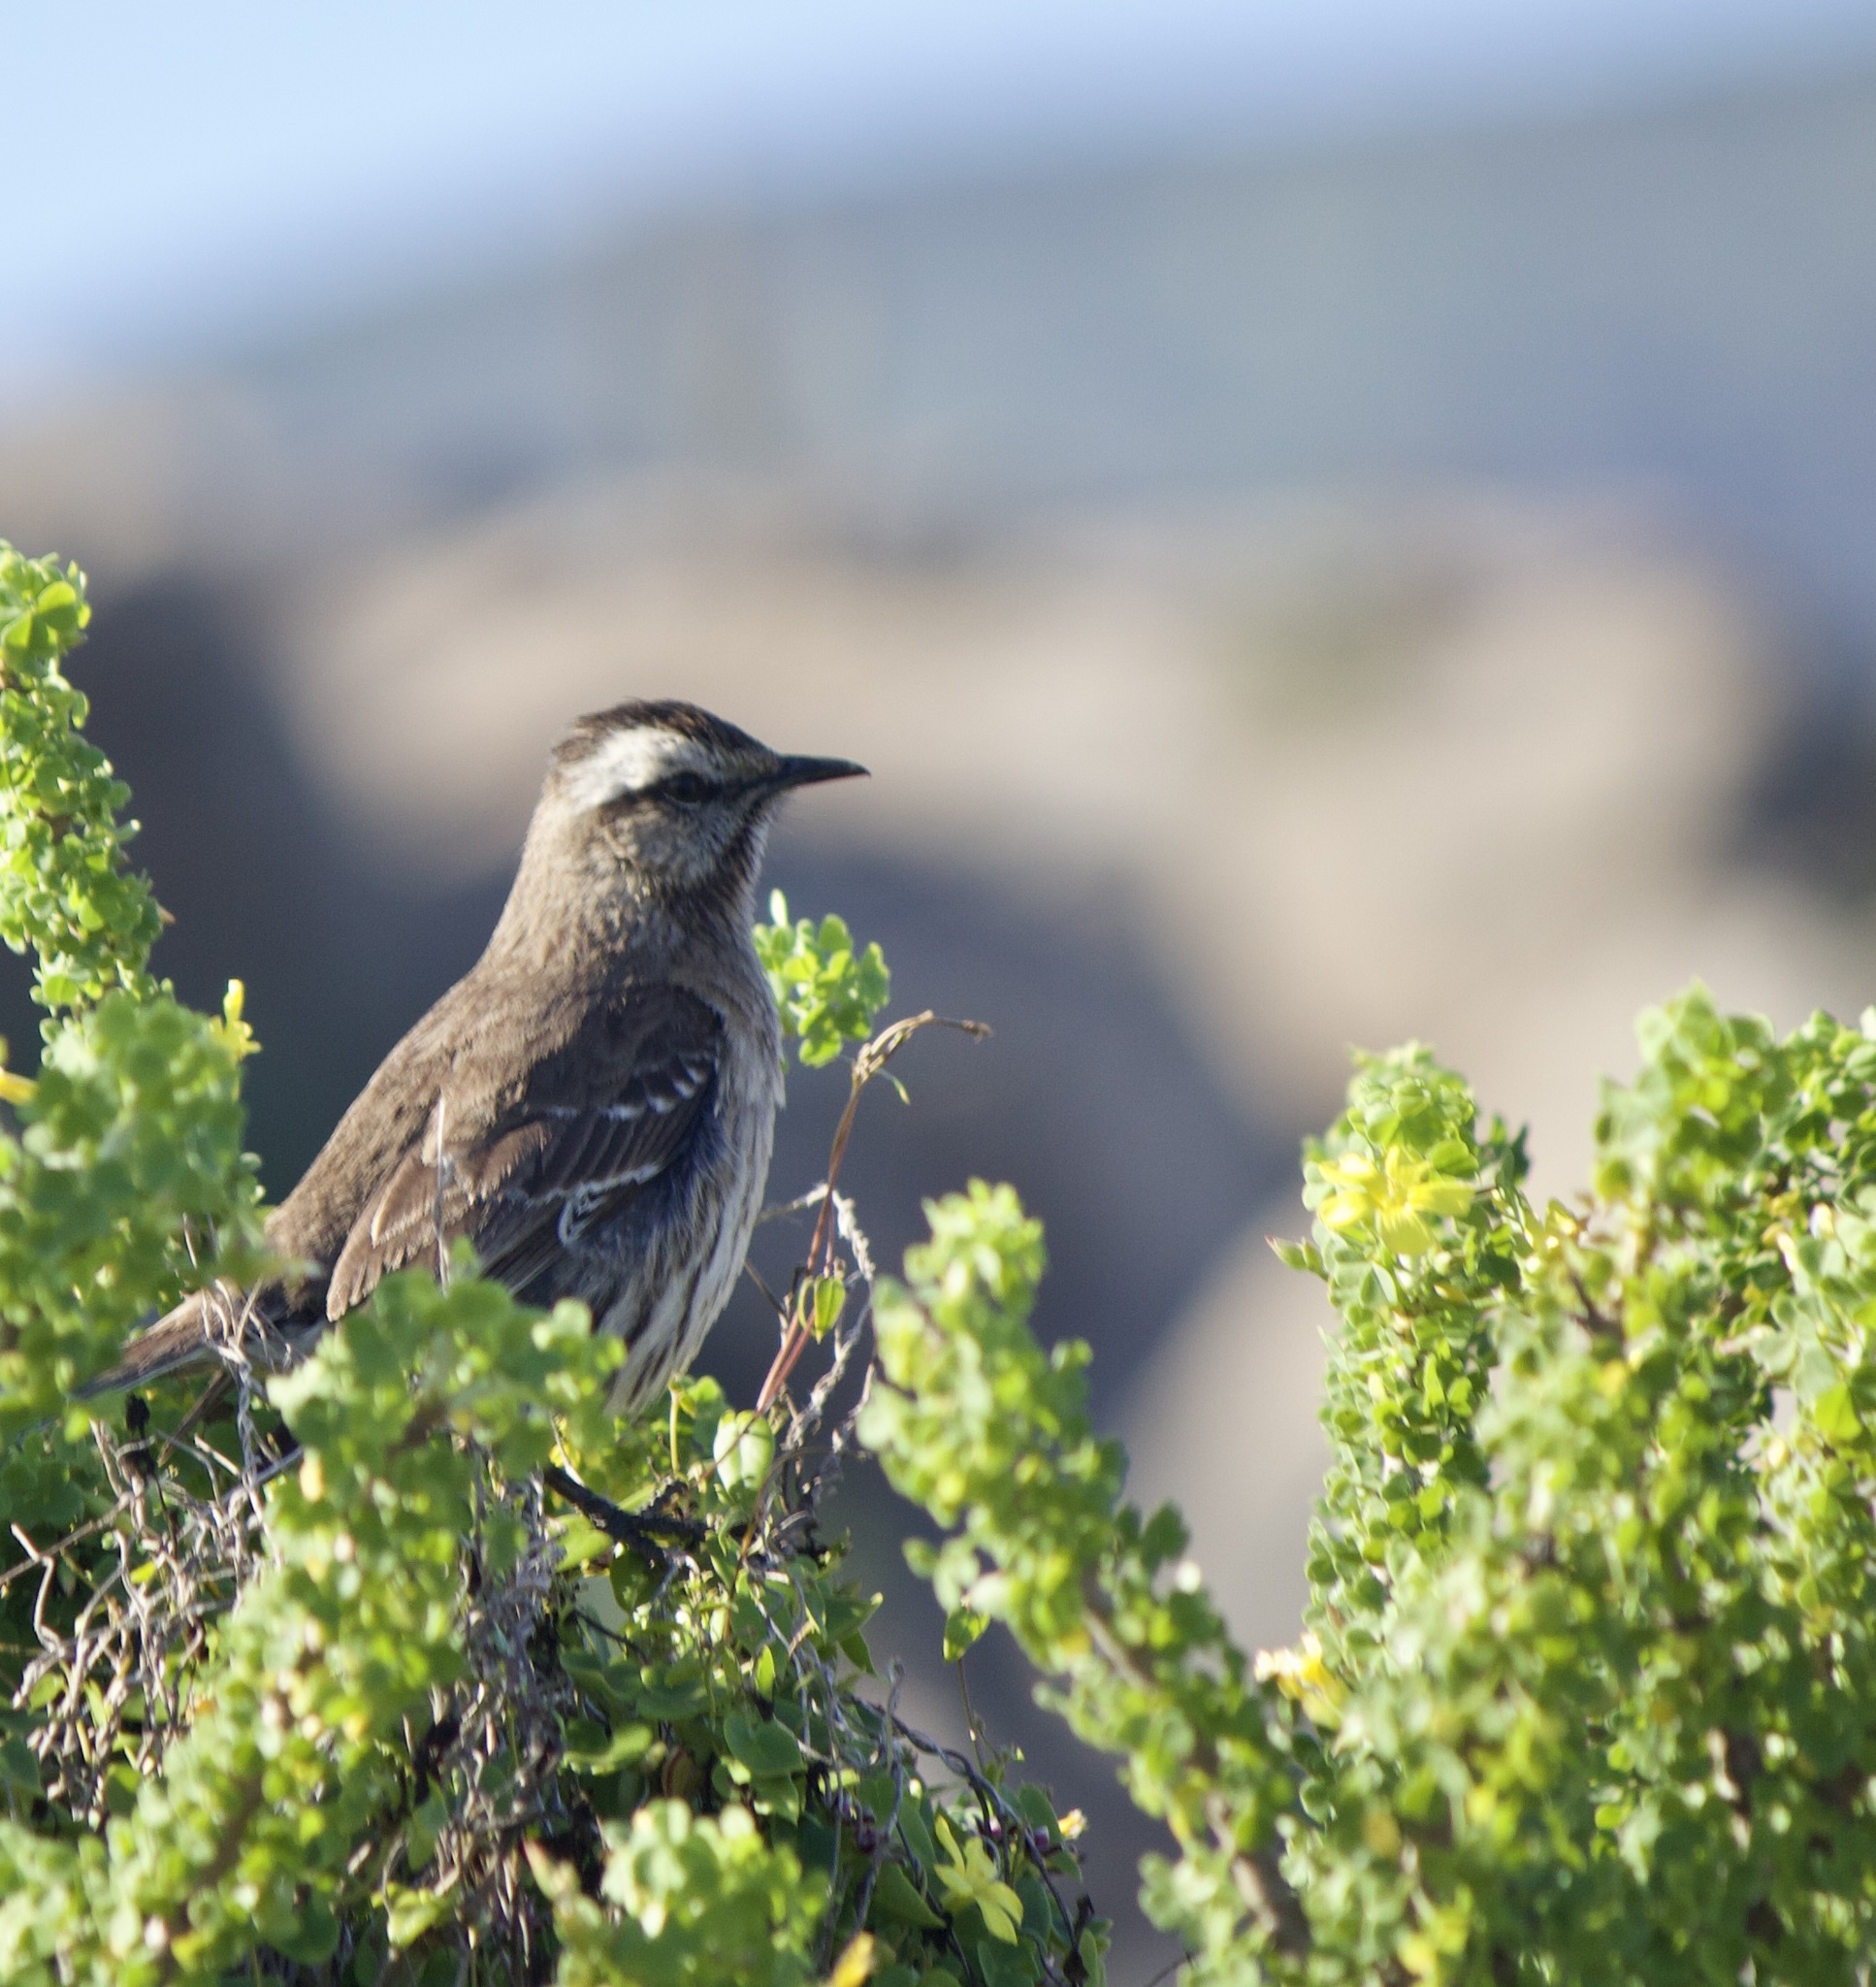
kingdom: Animalia
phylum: Chordata
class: Aves
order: Passeriformes
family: Mimidae
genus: Mimus
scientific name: Mimus thenca
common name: Chilean mockingbird
